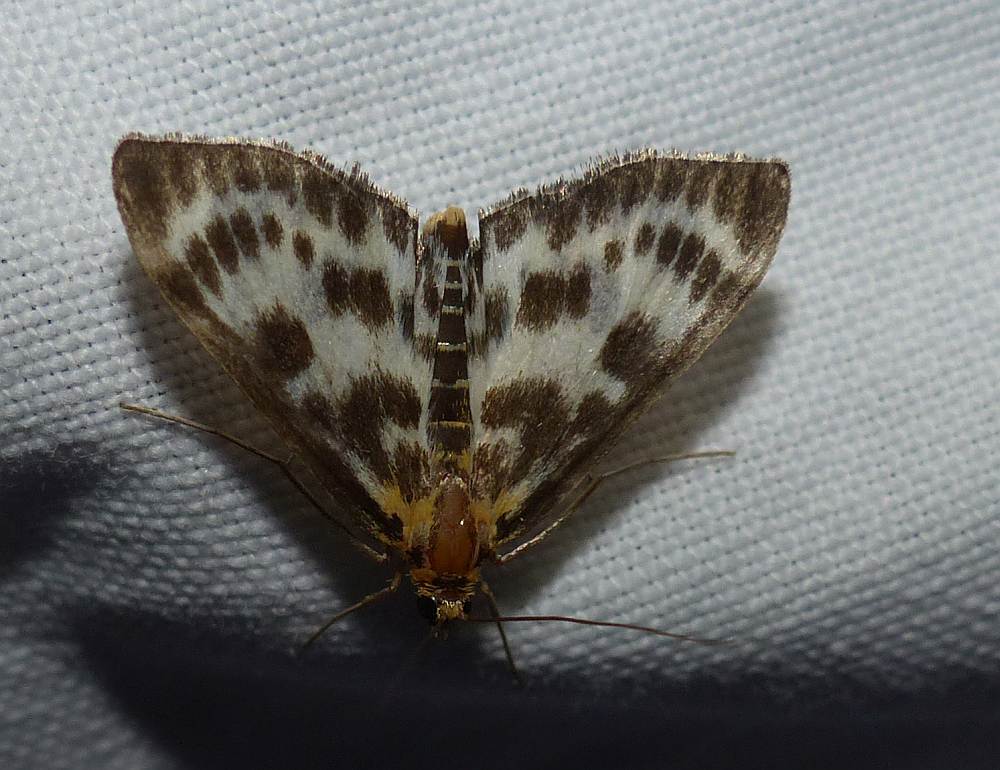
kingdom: Animalia
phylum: Arthropoda
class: Insecta
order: Lepidoptera
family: Crambidae
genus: Anania
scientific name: Anania hortulata
